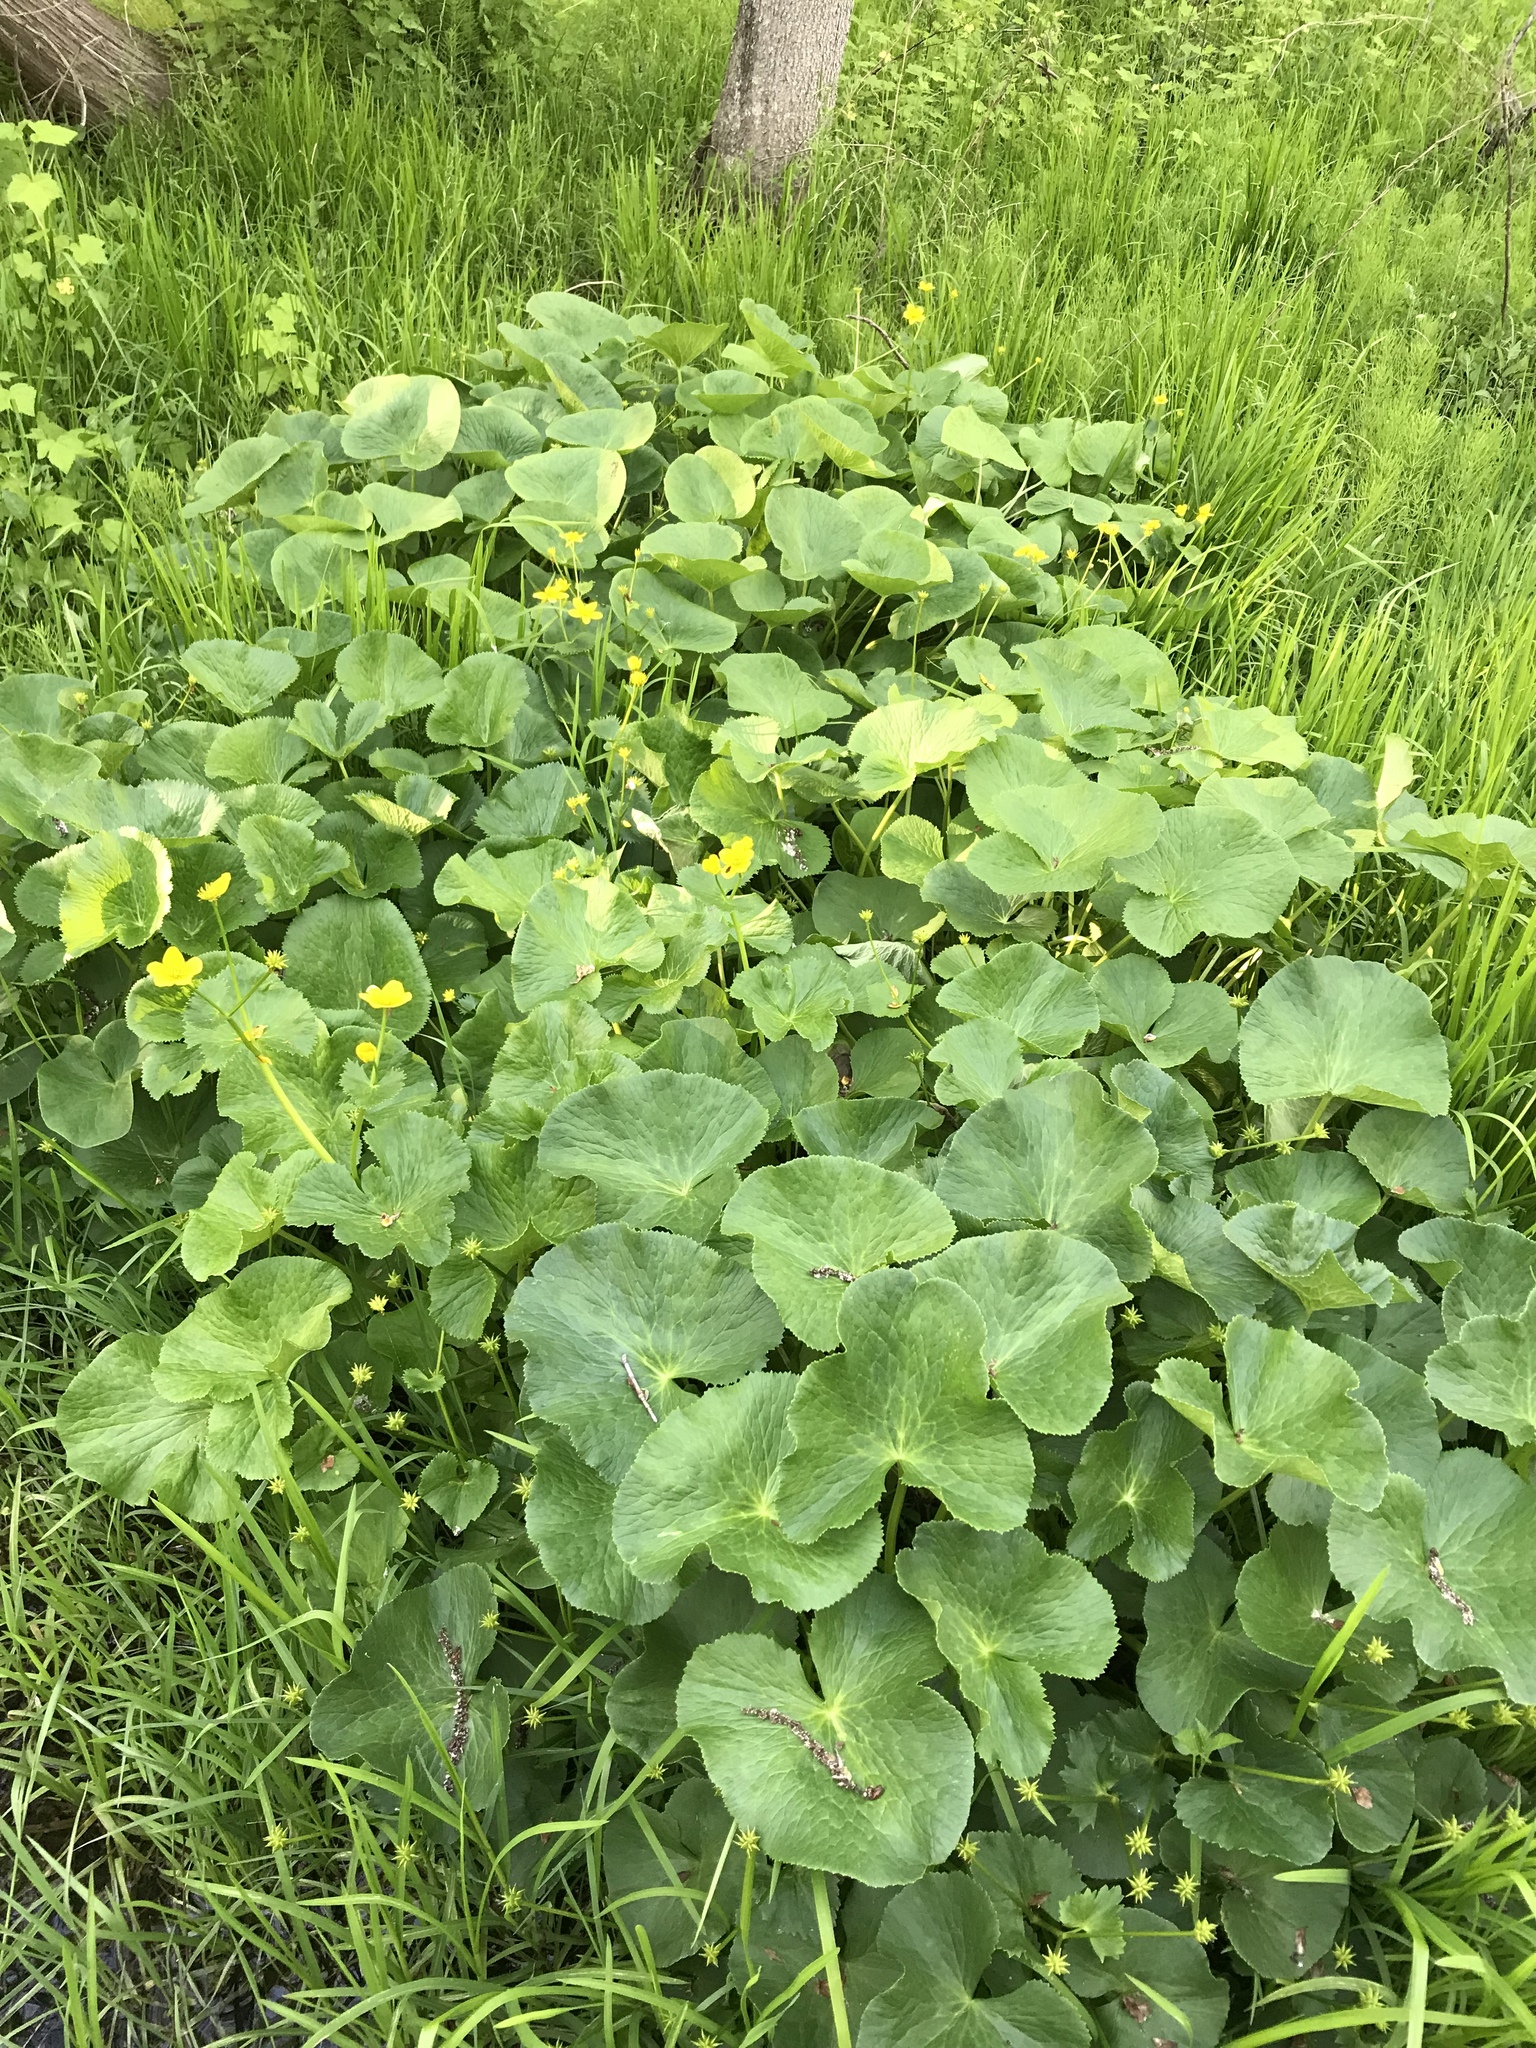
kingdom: Plantae
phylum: Tracheophyta
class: Magnoliopsida
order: Ranunculales
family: Ranunculaceae
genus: Caltha
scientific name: Caltha palustris
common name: Marsh marigold
